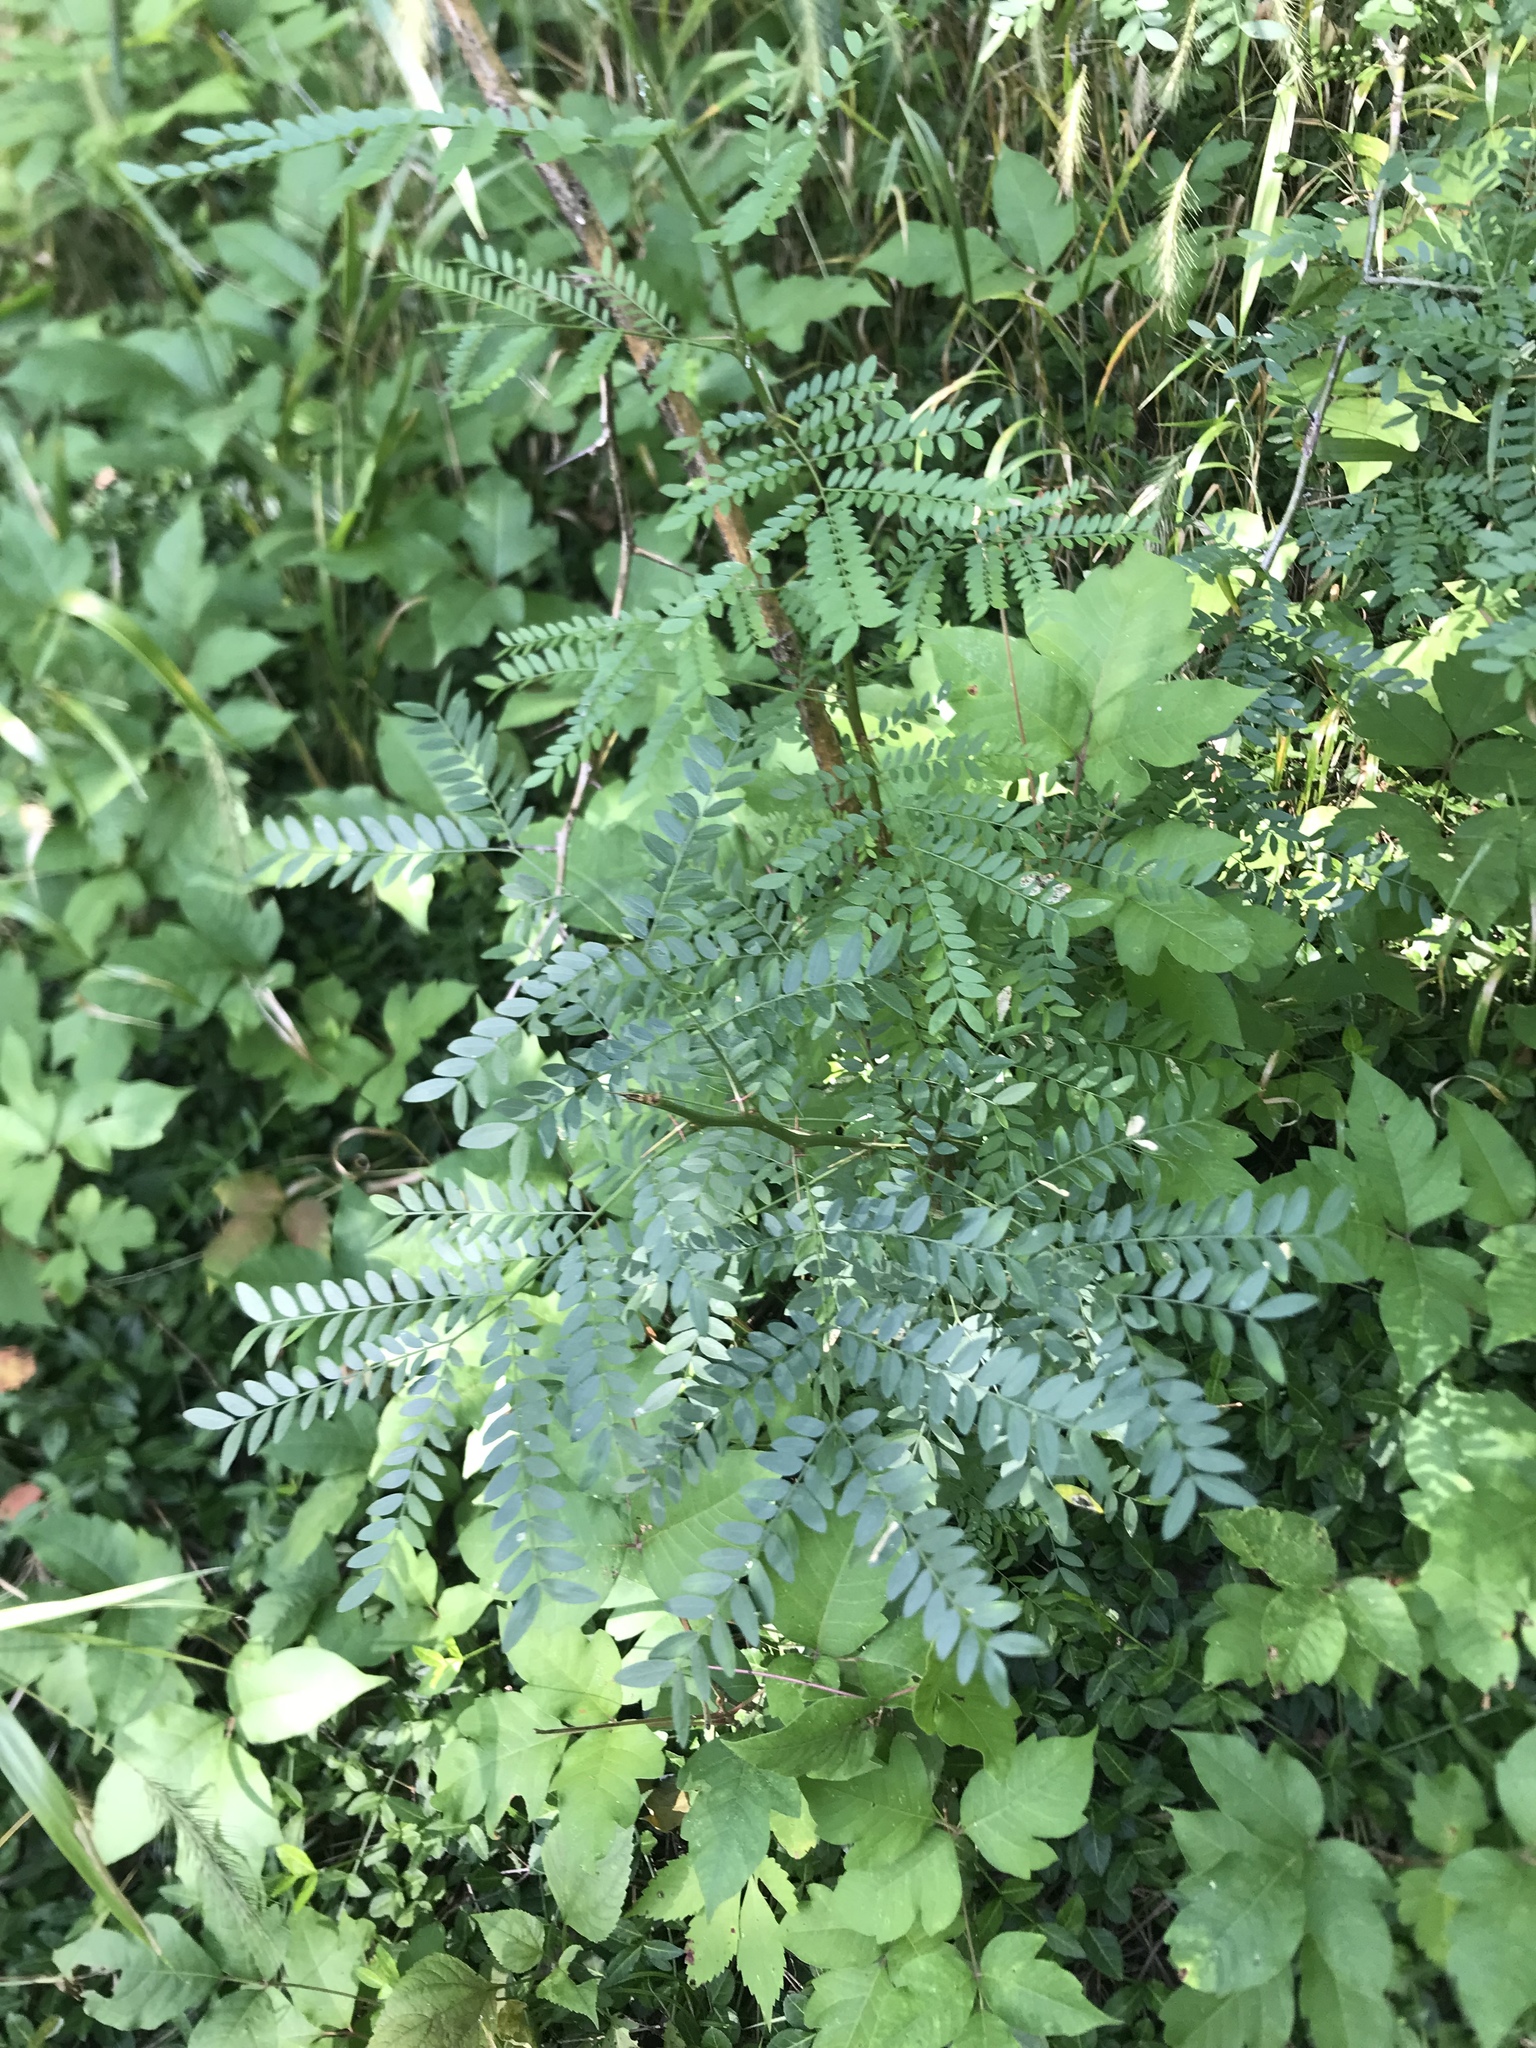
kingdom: Plantae
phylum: Tracheophyta
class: Magnoliopsida
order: Fabales
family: Fabaceae
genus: Gleditsia
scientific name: Gleditsia triacanthos
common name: Common honeylocust
